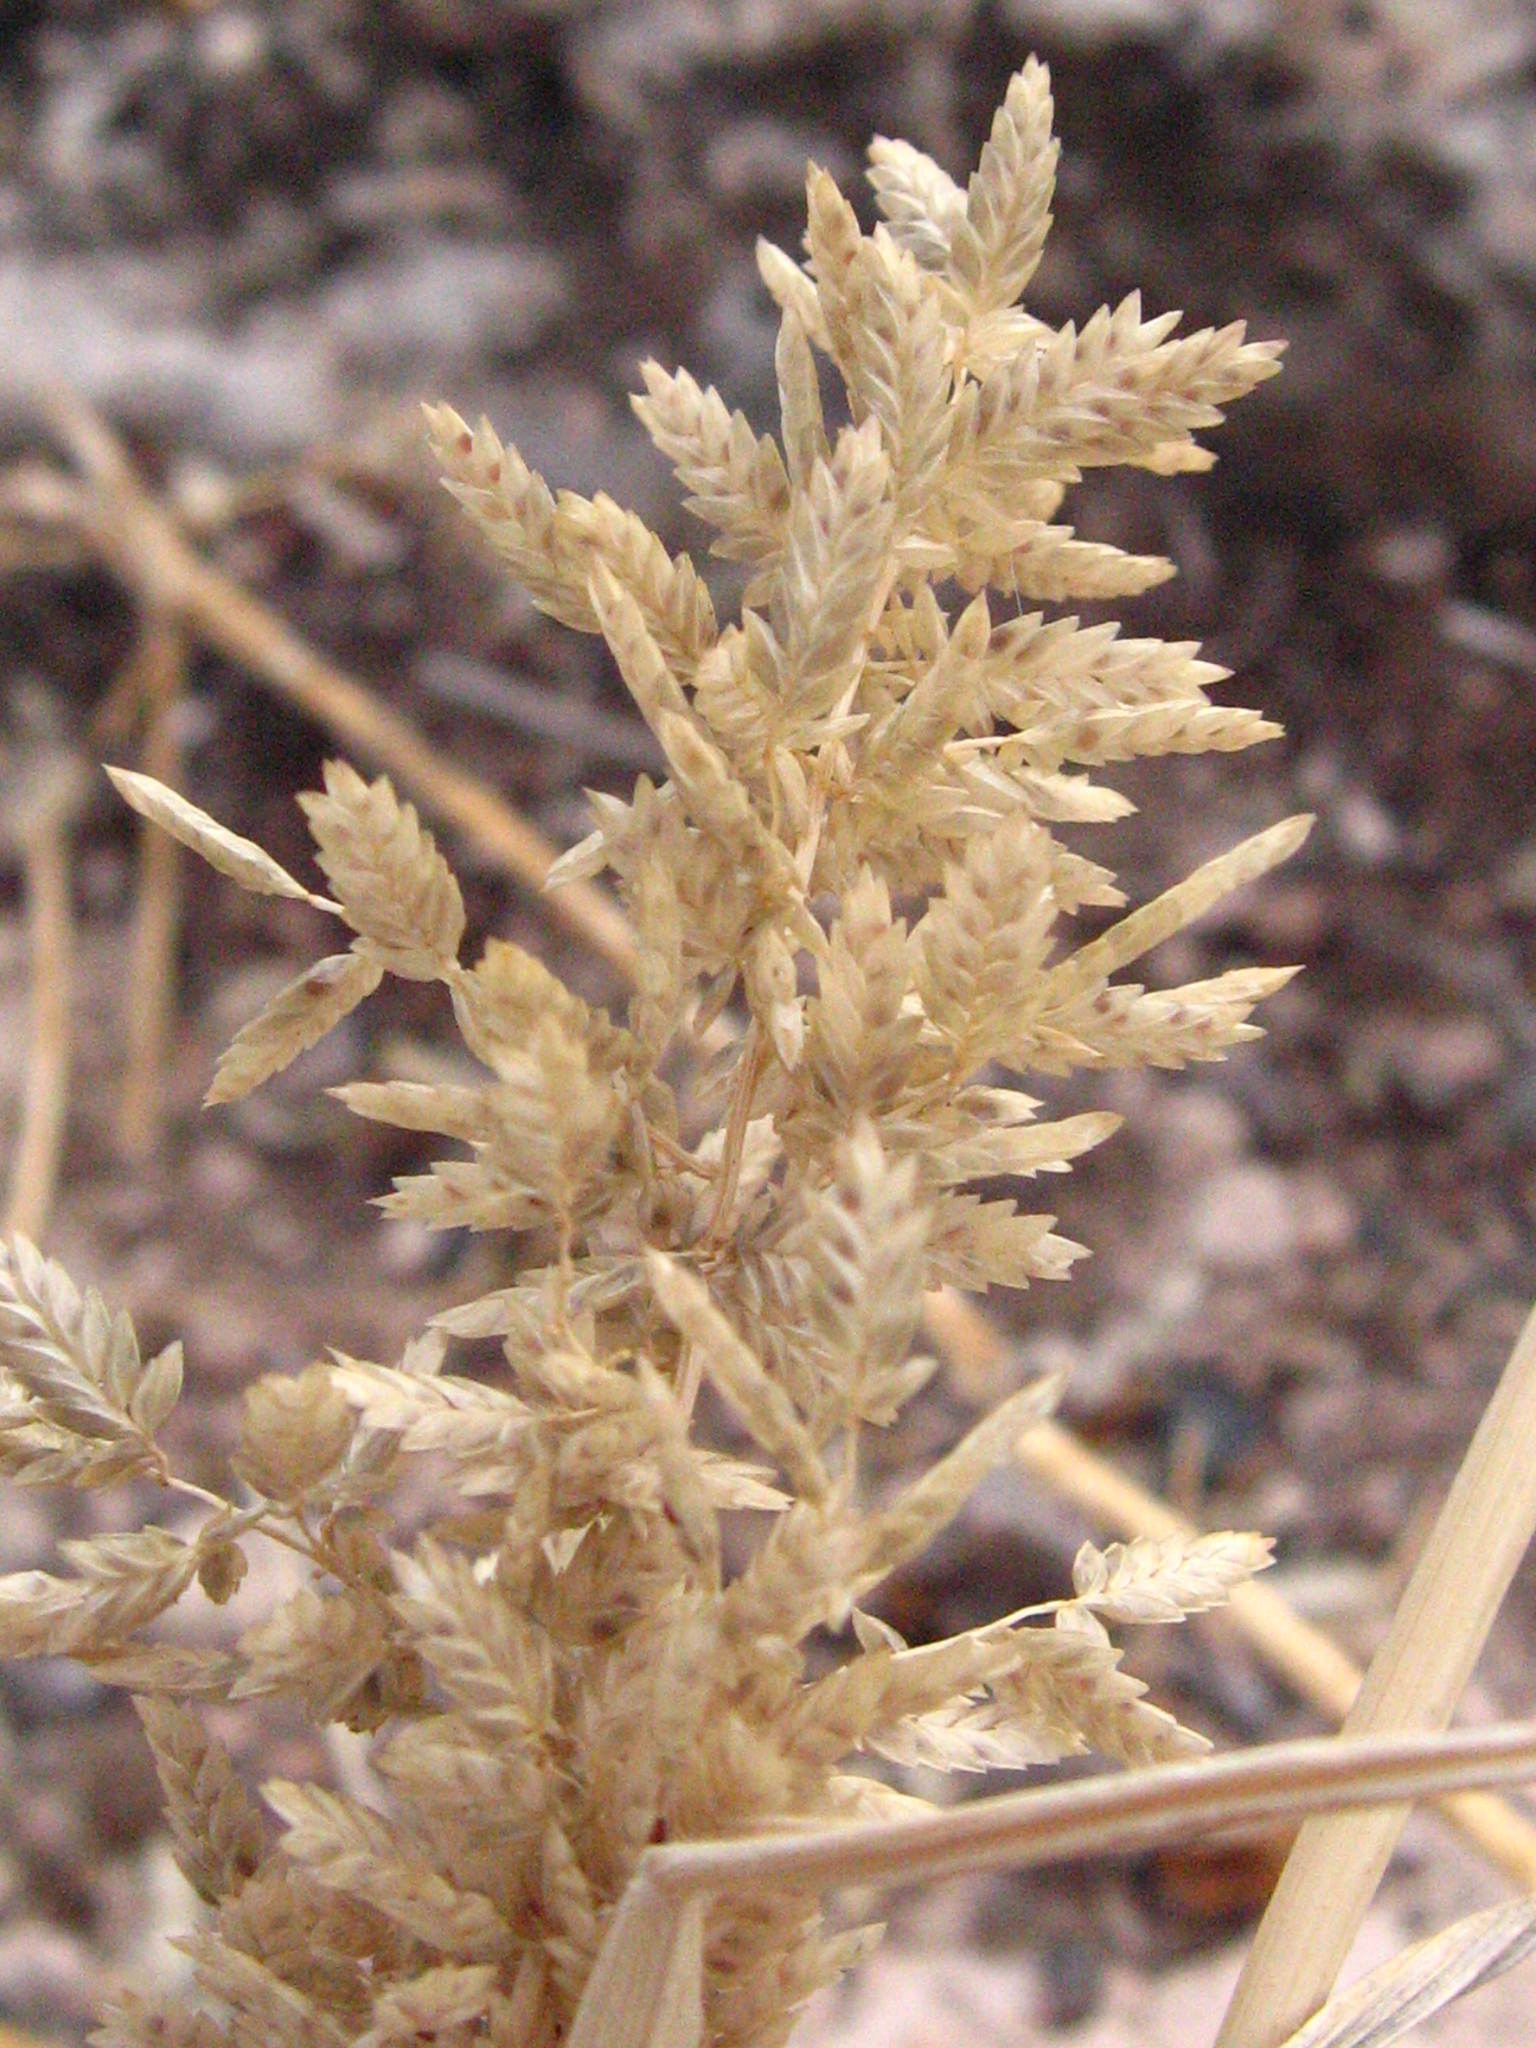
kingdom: Plantae
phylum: Tracheophyta
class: Liliopsida
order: Poales
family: Poaceae
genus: Eragrostis
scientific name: Eragrostis cilianensis
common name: Stinkgrass
